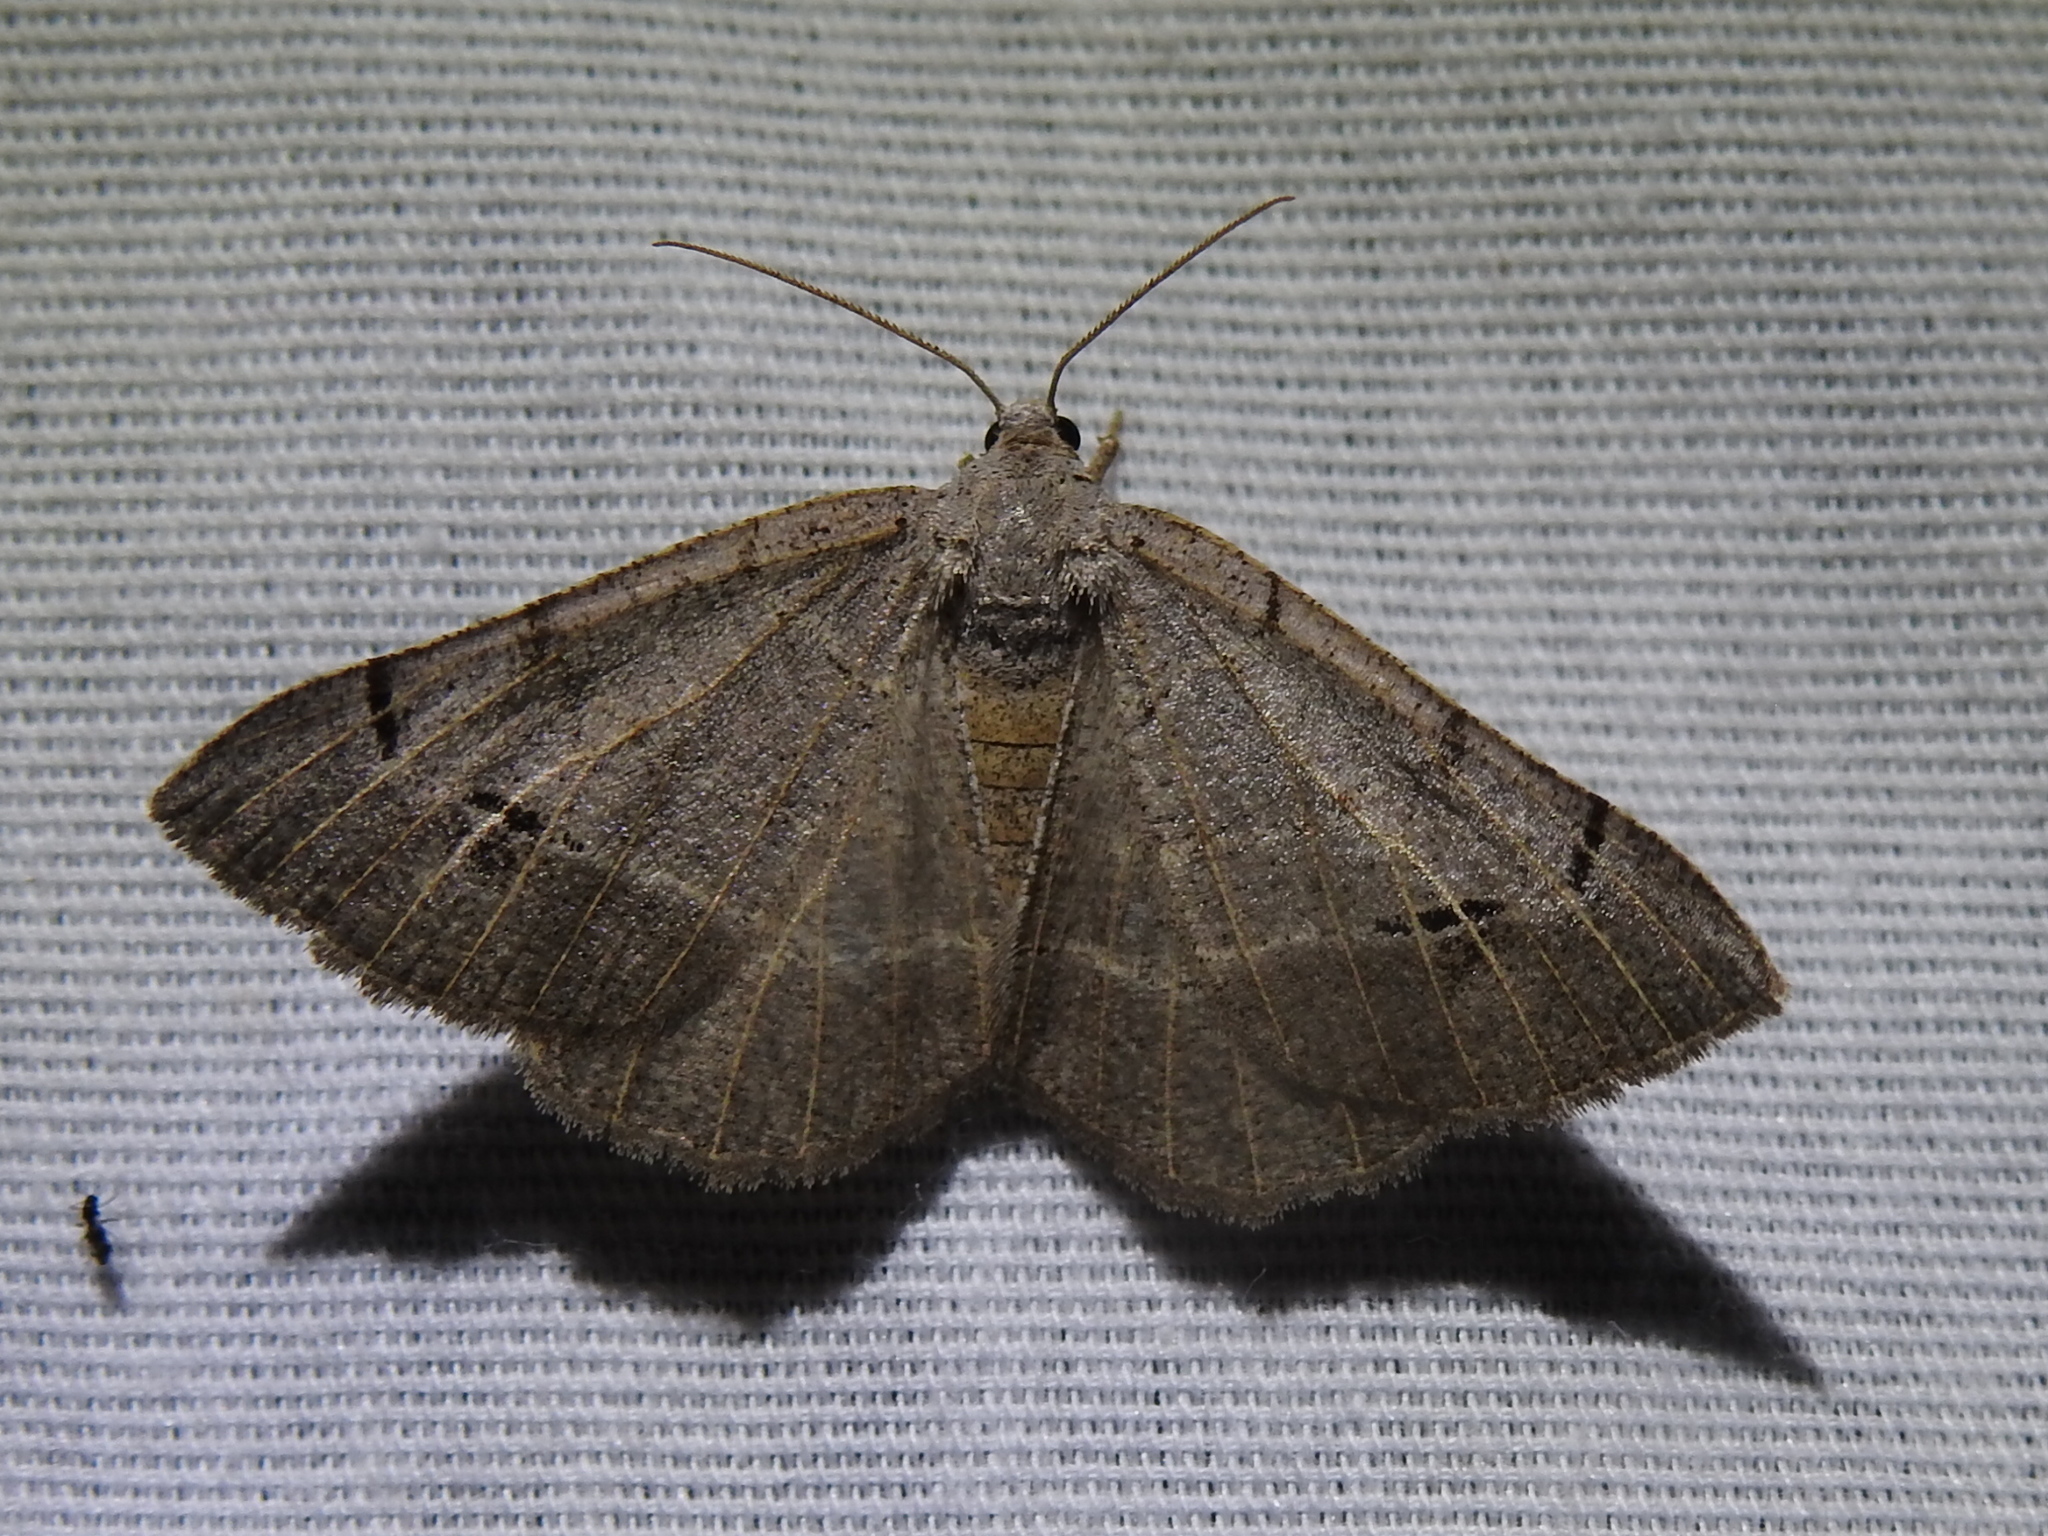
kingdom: Animalia
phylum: Arthropoda
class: Insecta
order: Lepidoptera
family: Geometridae
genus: Isturgia
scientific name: Isturgia dislocaria
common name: Pale-viened enconista
